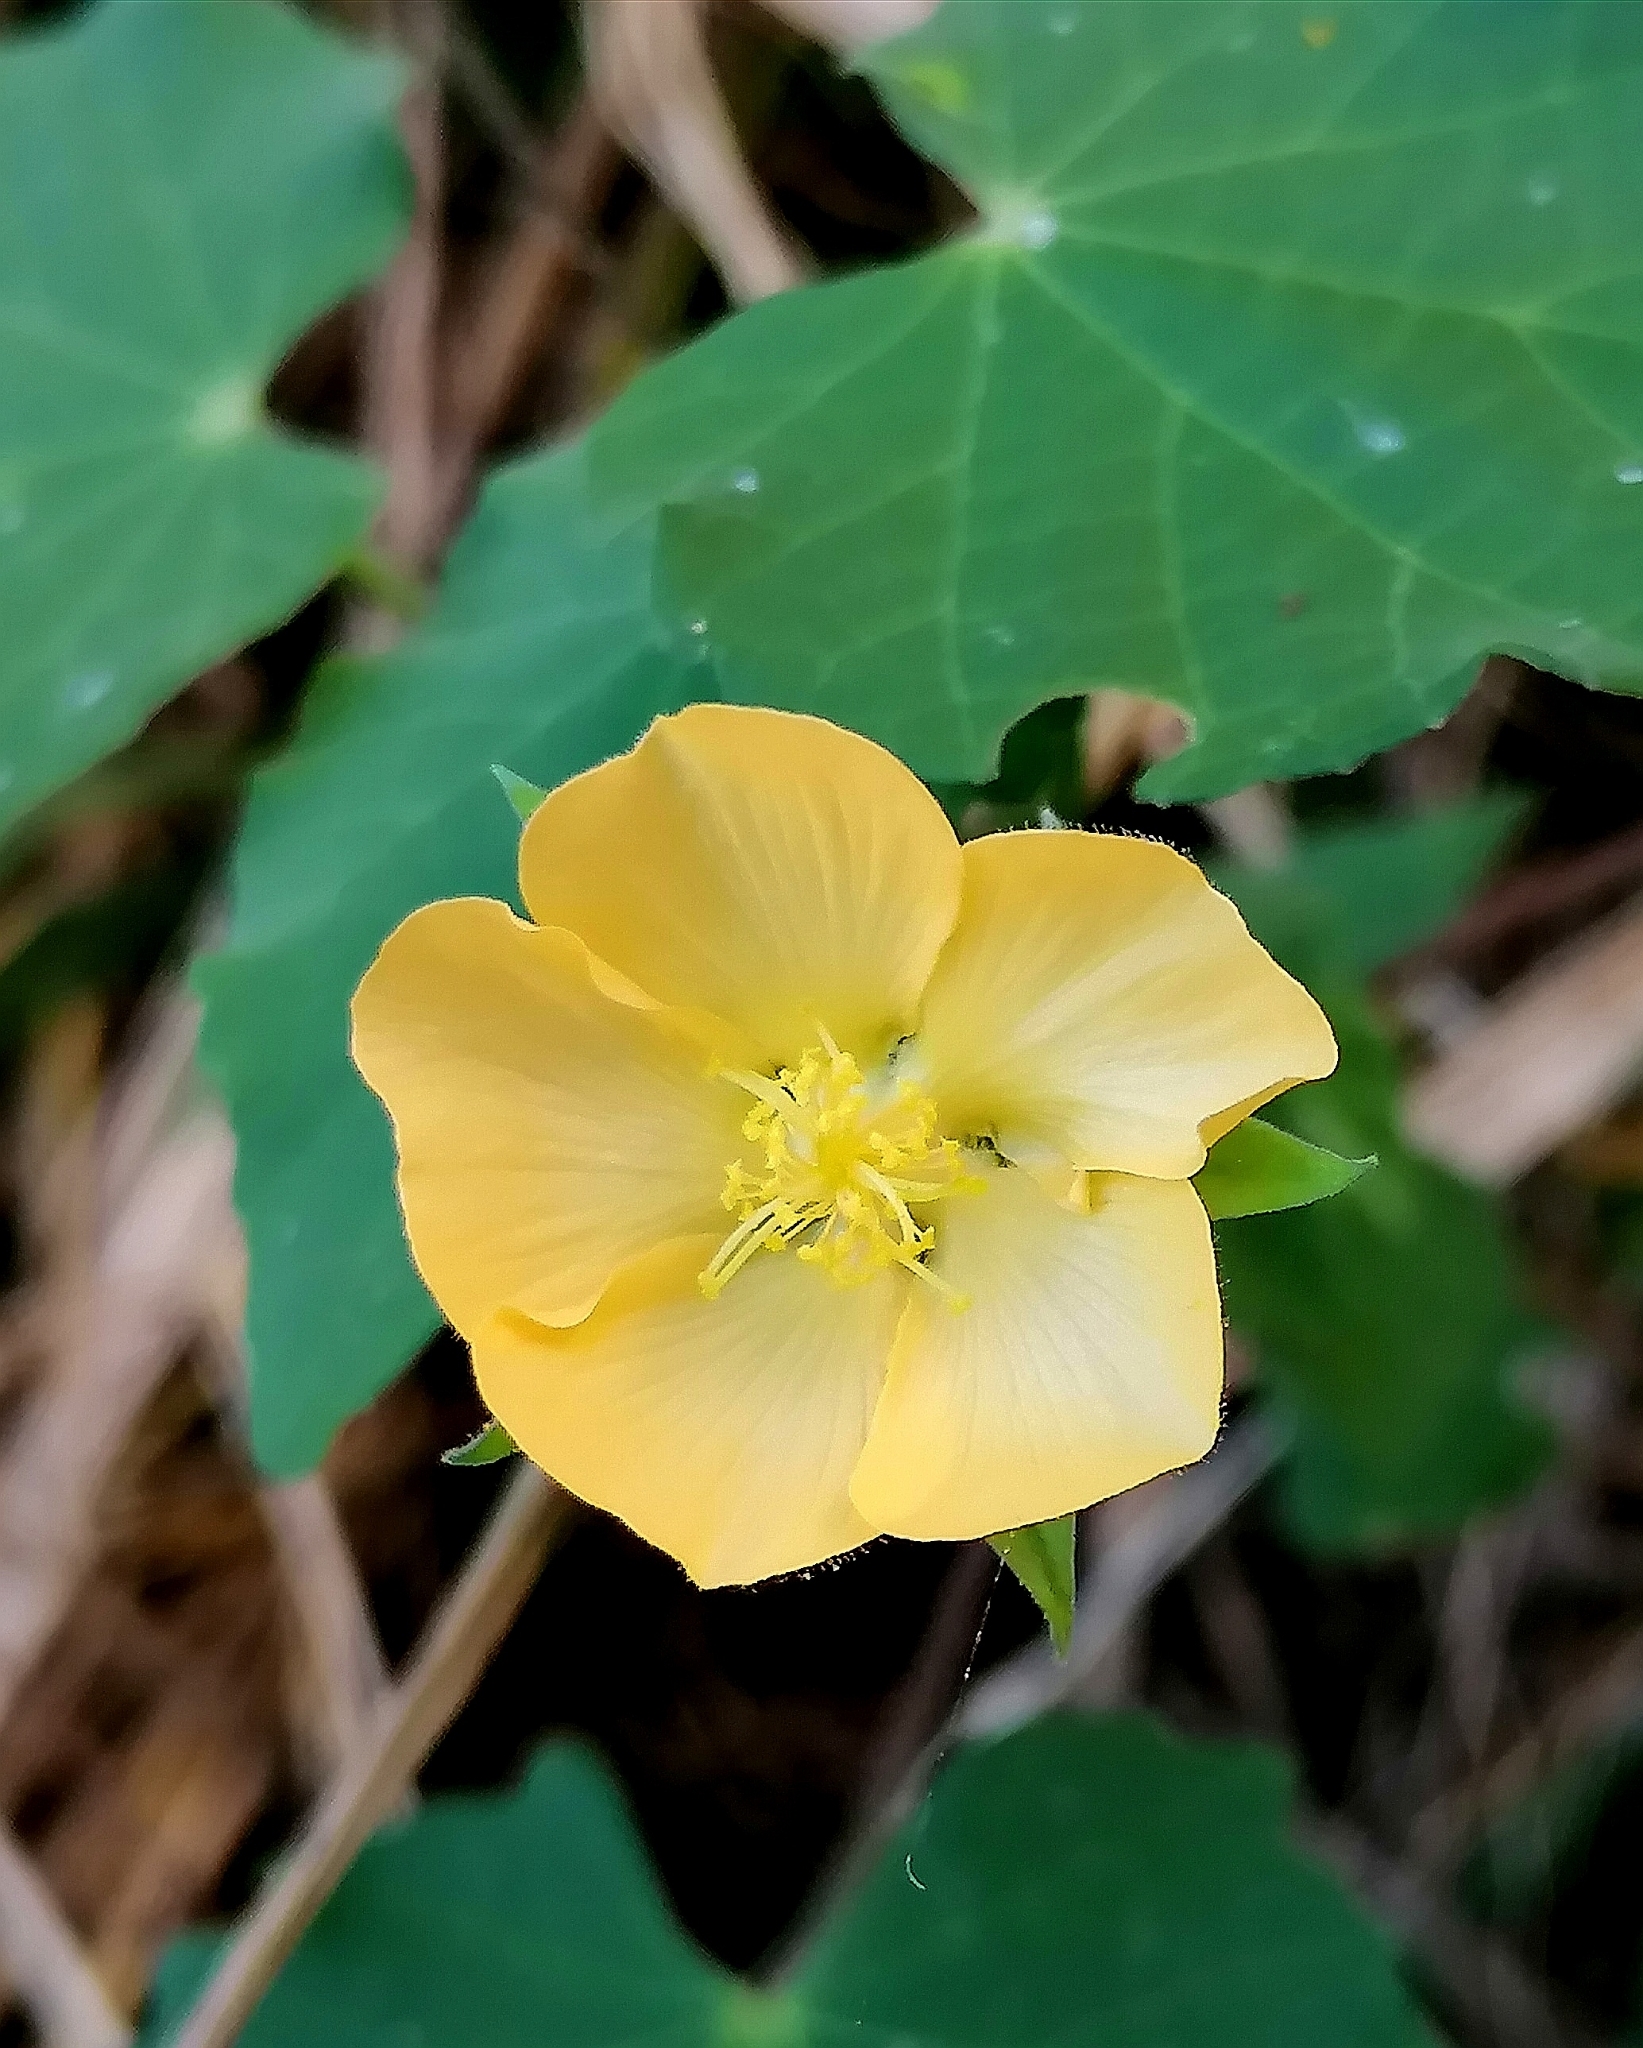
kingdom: Plantae
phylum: Tracheophyta
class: Magnoliopsida
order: Malvales
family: Malvaceae
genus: Abutilon
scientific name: Abutilon sonneratianum
